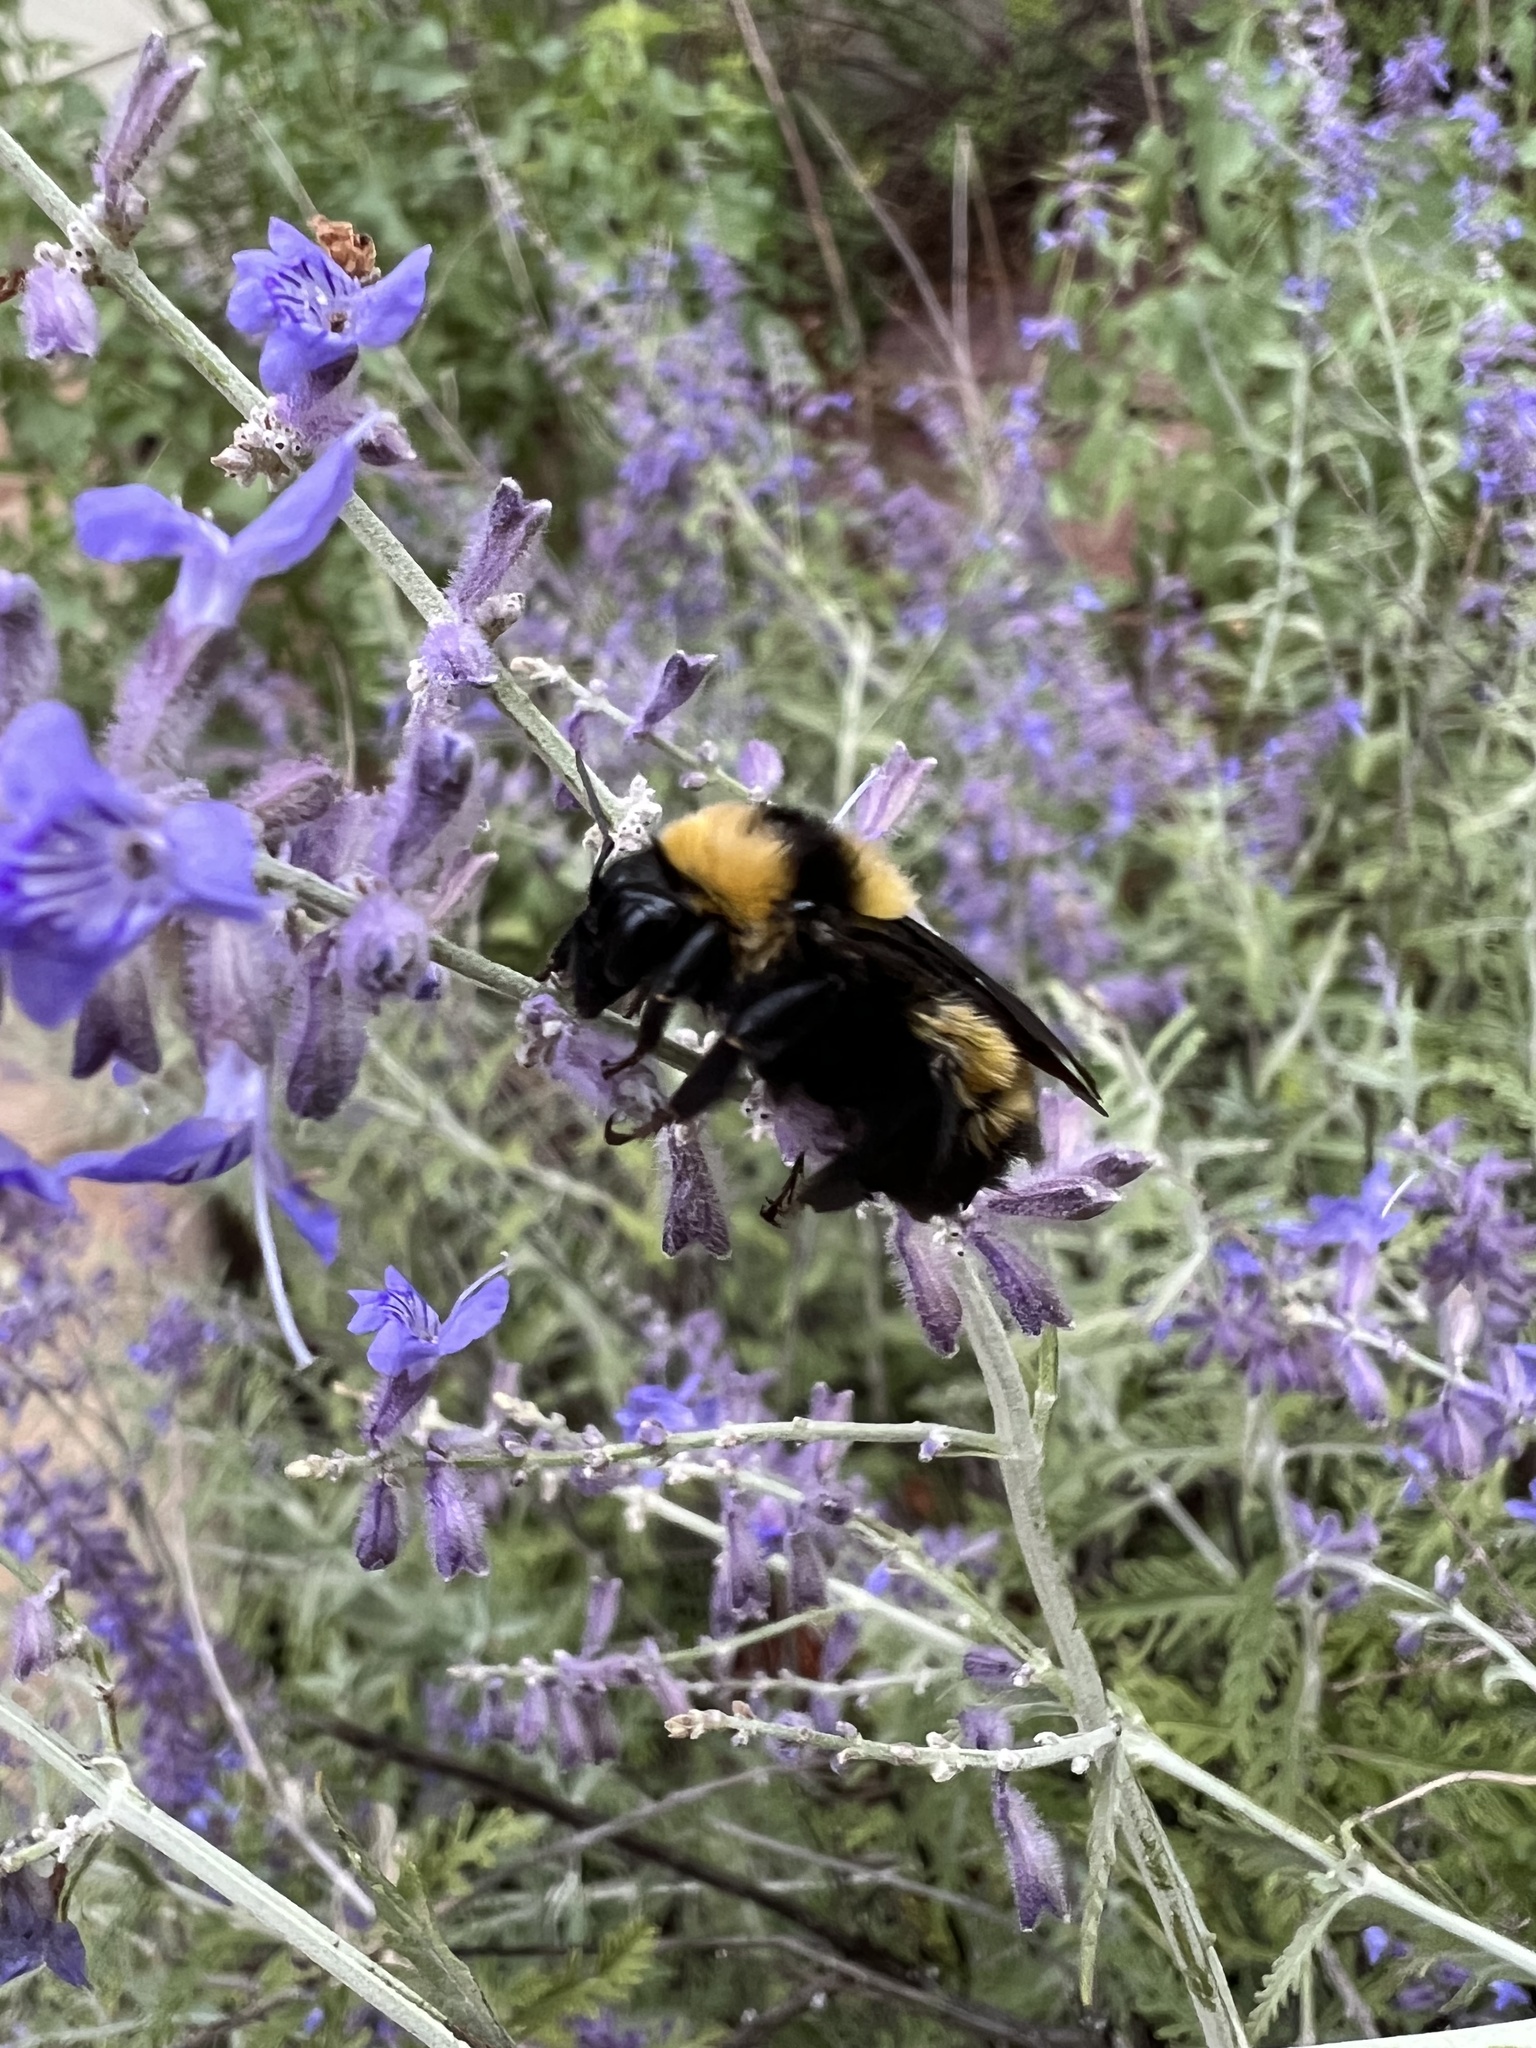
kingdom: Animalia
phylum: Arthropoda
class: Insecta
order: Hymenoptera
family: Apidae
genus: Bombus
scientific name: Bombus sonorus
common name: Sonoran bumble bee
